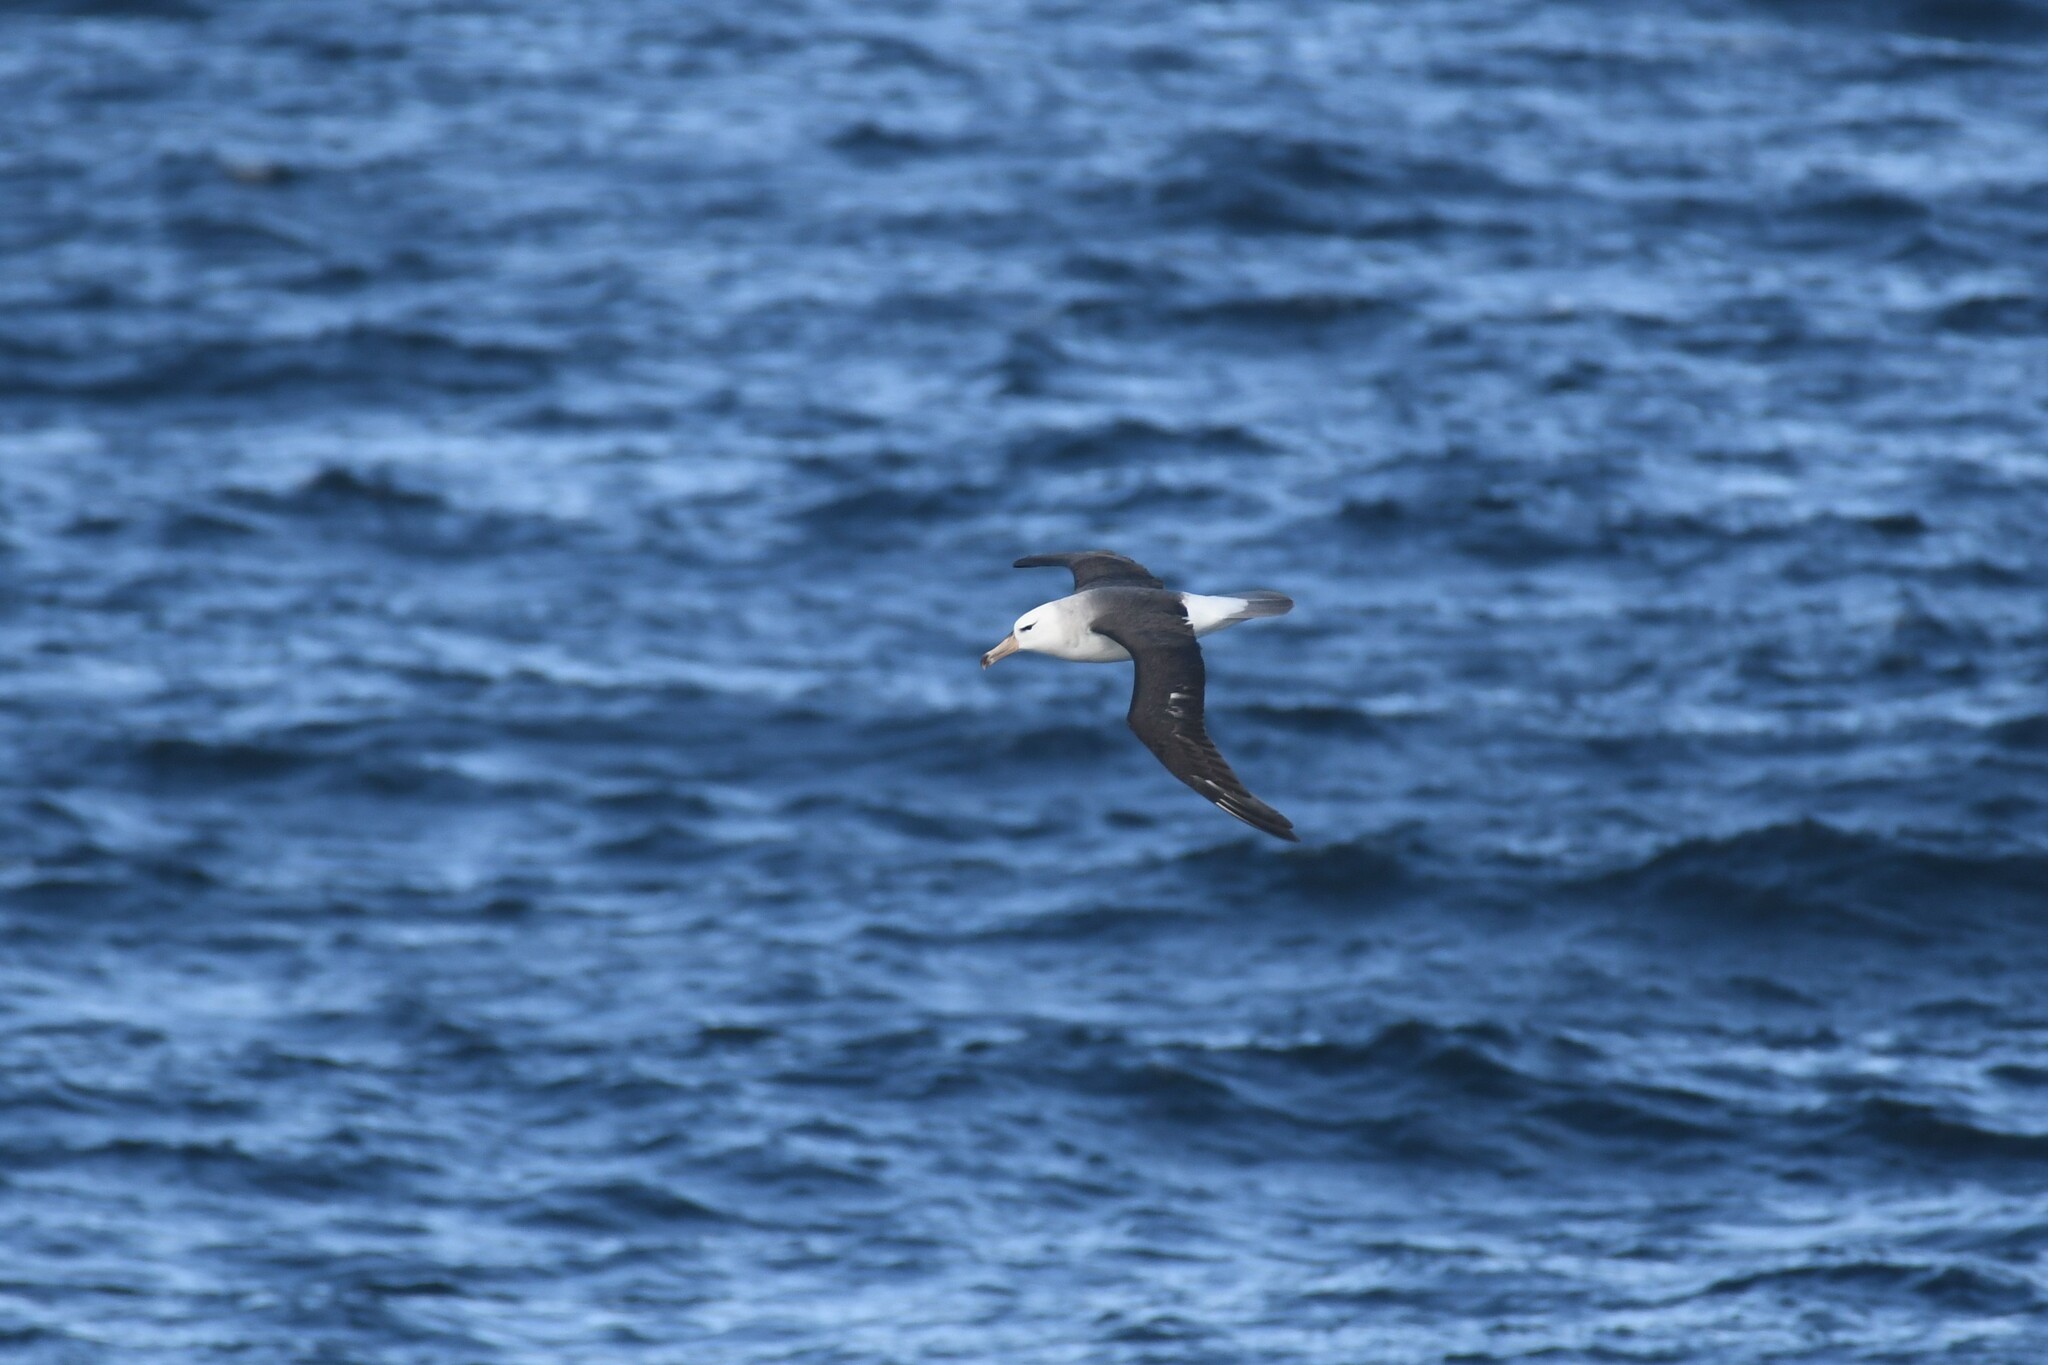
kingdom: Animalia
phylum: Chordata
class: Aves
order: Procellariiformes
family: Diomedeidae
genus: Thalassarche
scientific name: Thalassarche melanophris
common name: Black-browed albatross
